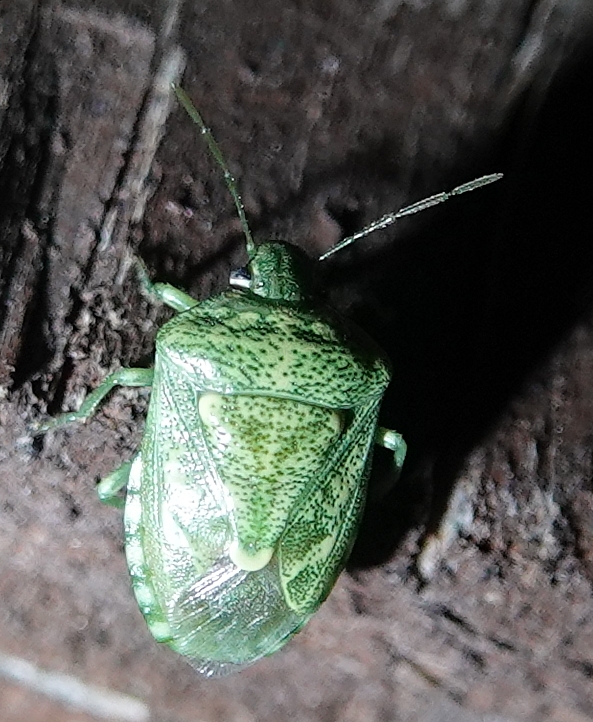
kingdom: Animalia
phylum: Arthropoda
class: Insecta
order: Hemiptera
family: Pentatomidae
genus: Banasa
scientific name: Banasa euchlora
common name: Cedar berry bug
